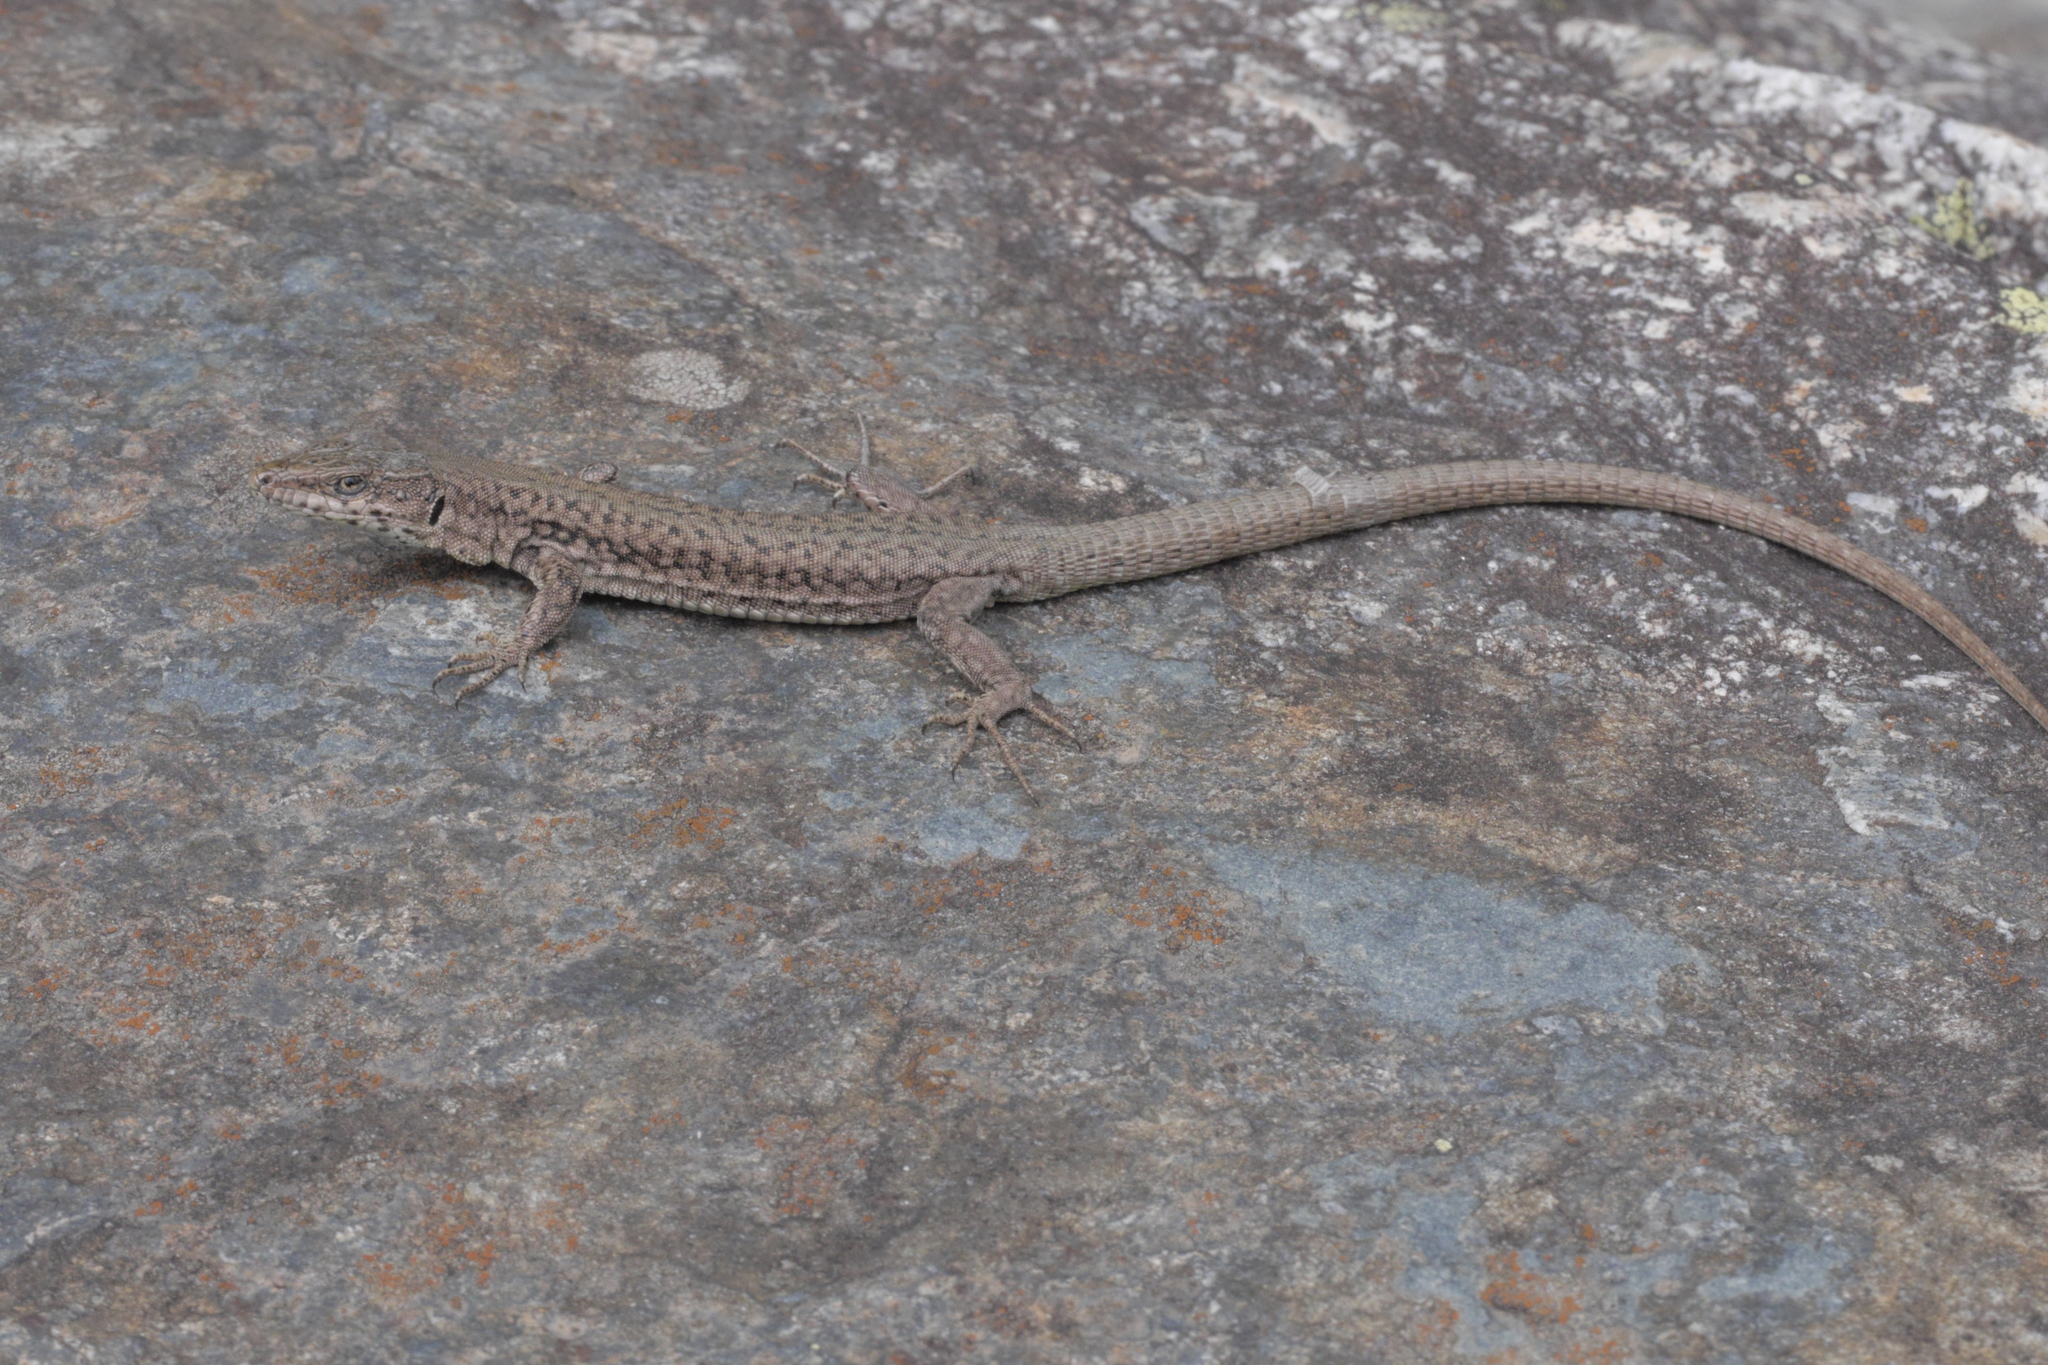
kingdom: Animalia
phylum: Chordata
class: Squamata
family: Lacertidae
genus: Podarcis
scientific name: Podarcis liolepis
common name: Catalonian wall lizard
